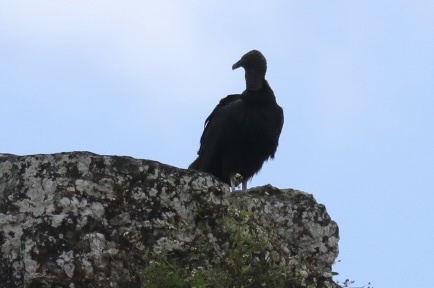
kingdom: Animalia
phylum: Chordata
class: Aves
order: Accipitriformes
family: Cathartidae
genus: Coragyps
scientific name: Coragyps atratus
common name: Black vulture
